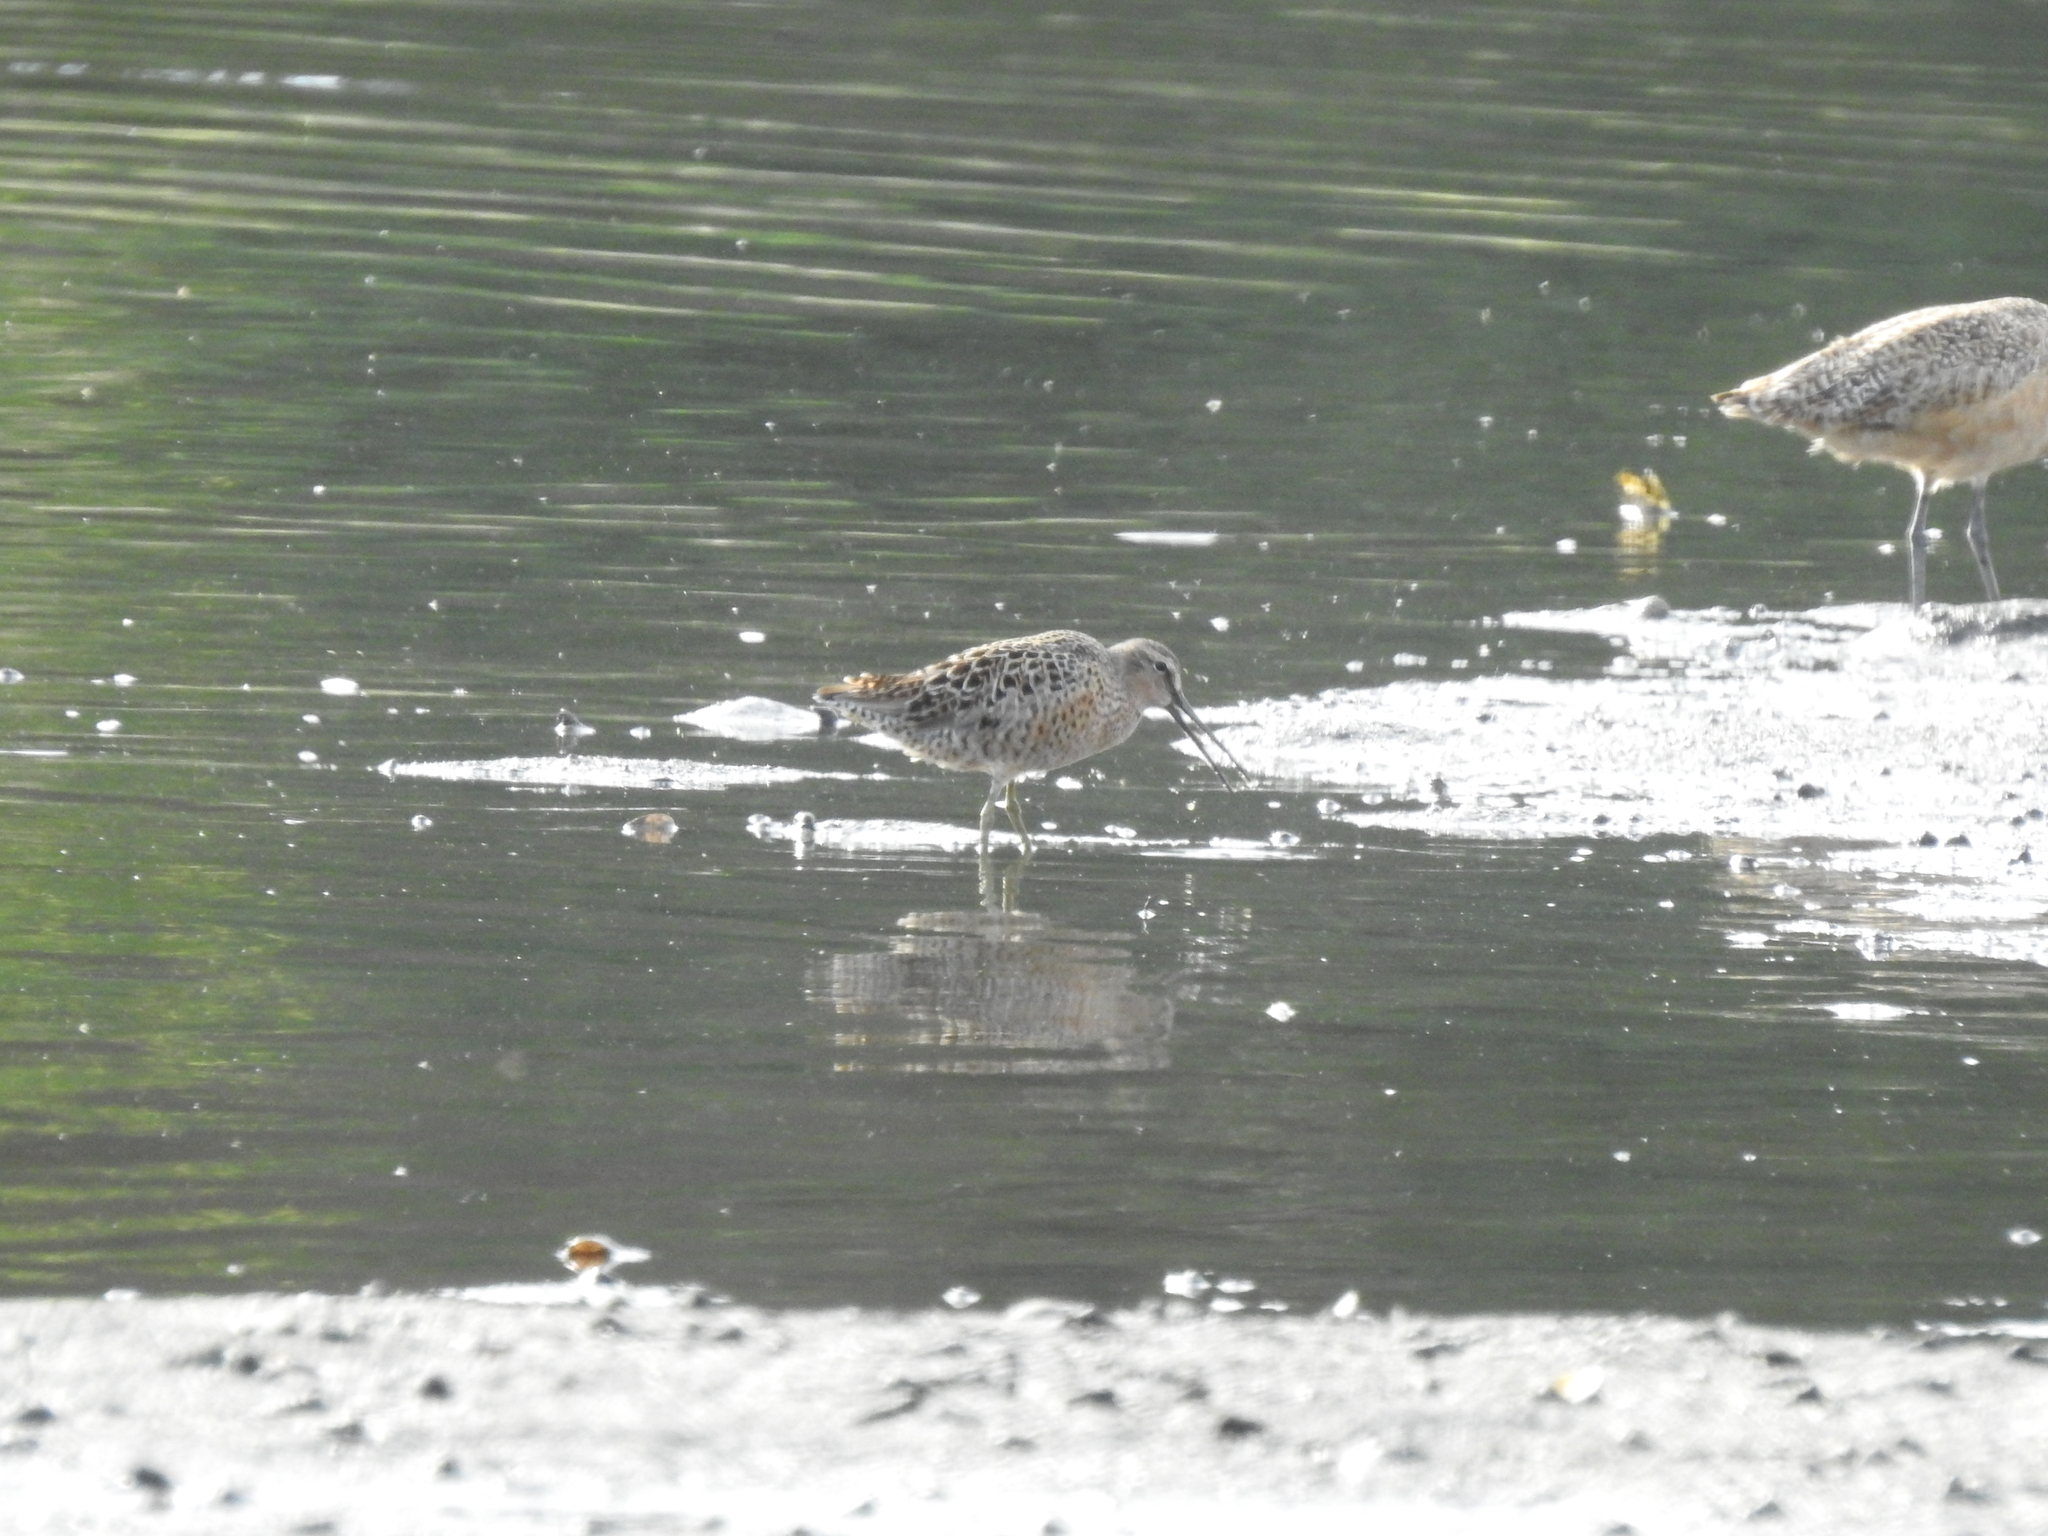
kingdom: Animalia
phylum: Chordata
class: Aves
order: Charadriiformes
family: Scolopacidae
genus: Limnodromus
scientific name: Limnodromus griseus
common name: Short-billed dowitcher
